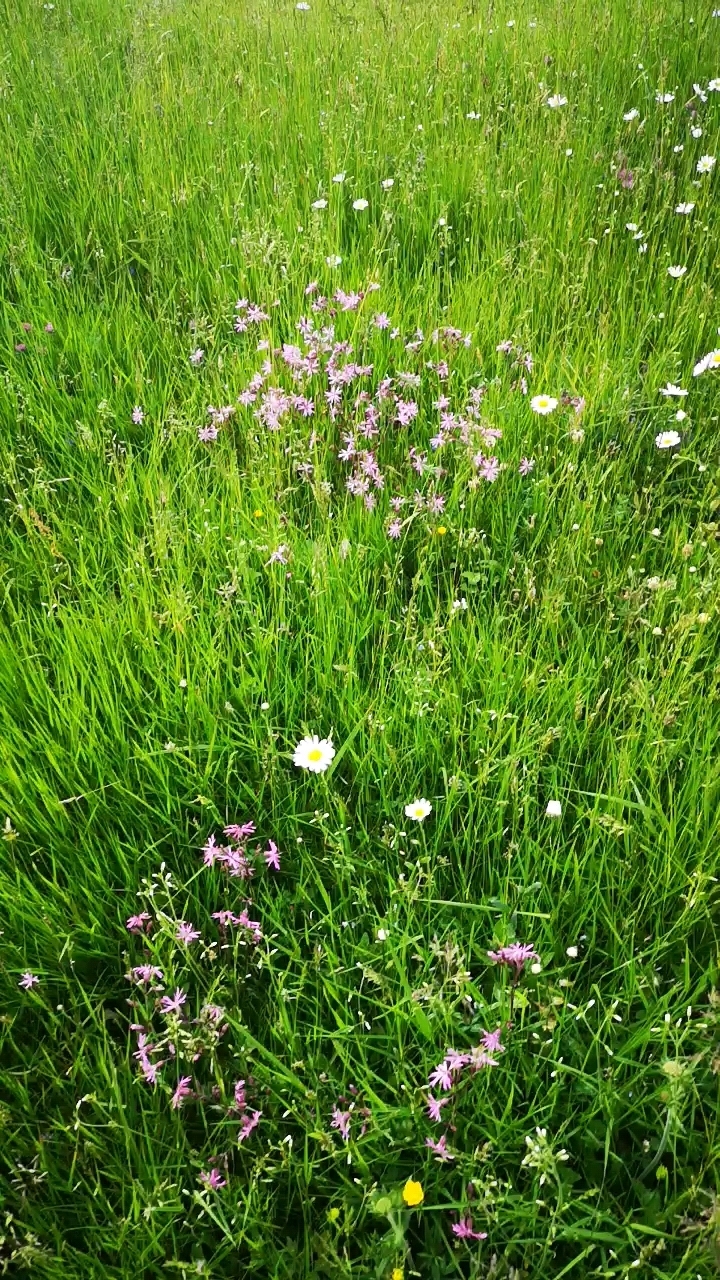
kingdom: Plantae
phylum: Tracheophyta
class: Magnoliopsida
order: Caryophyllales
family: Caryophyllaceae
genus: Silene
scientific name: Silene flos-cuculi
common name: Ragged-robin
